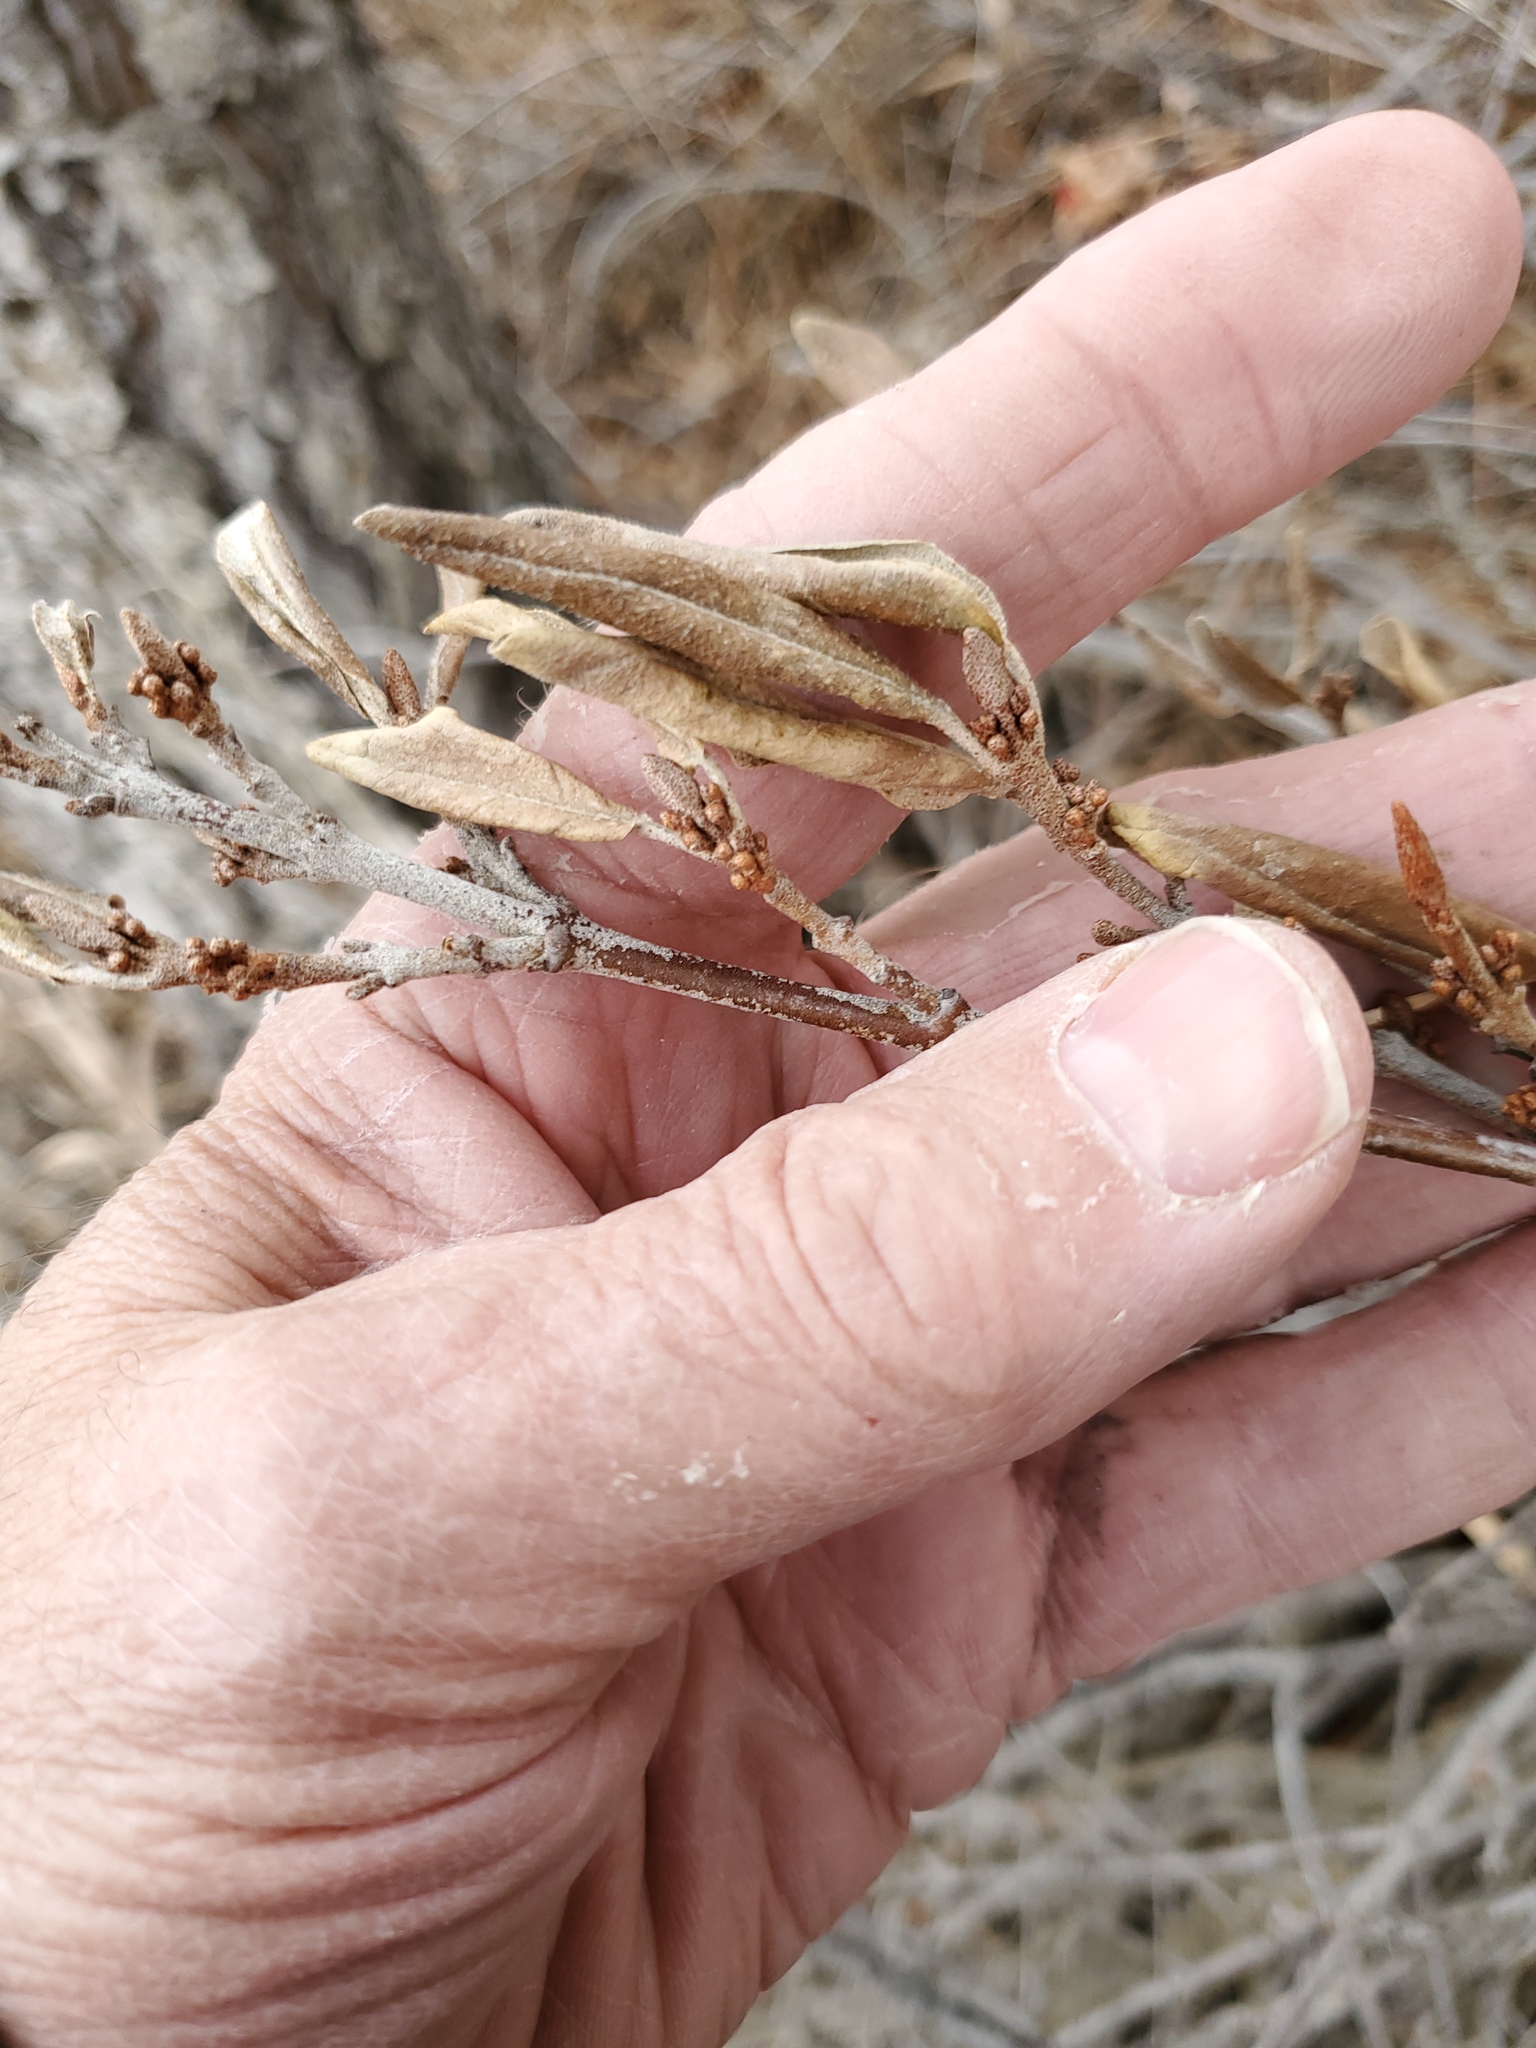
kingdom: Plantae
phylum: Tracheophyta
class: Magnoliopsida
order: Rosales
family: Elaeagnaceae
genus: Shepherdia
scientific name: Shepherdia canadensis
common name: Soapberry
